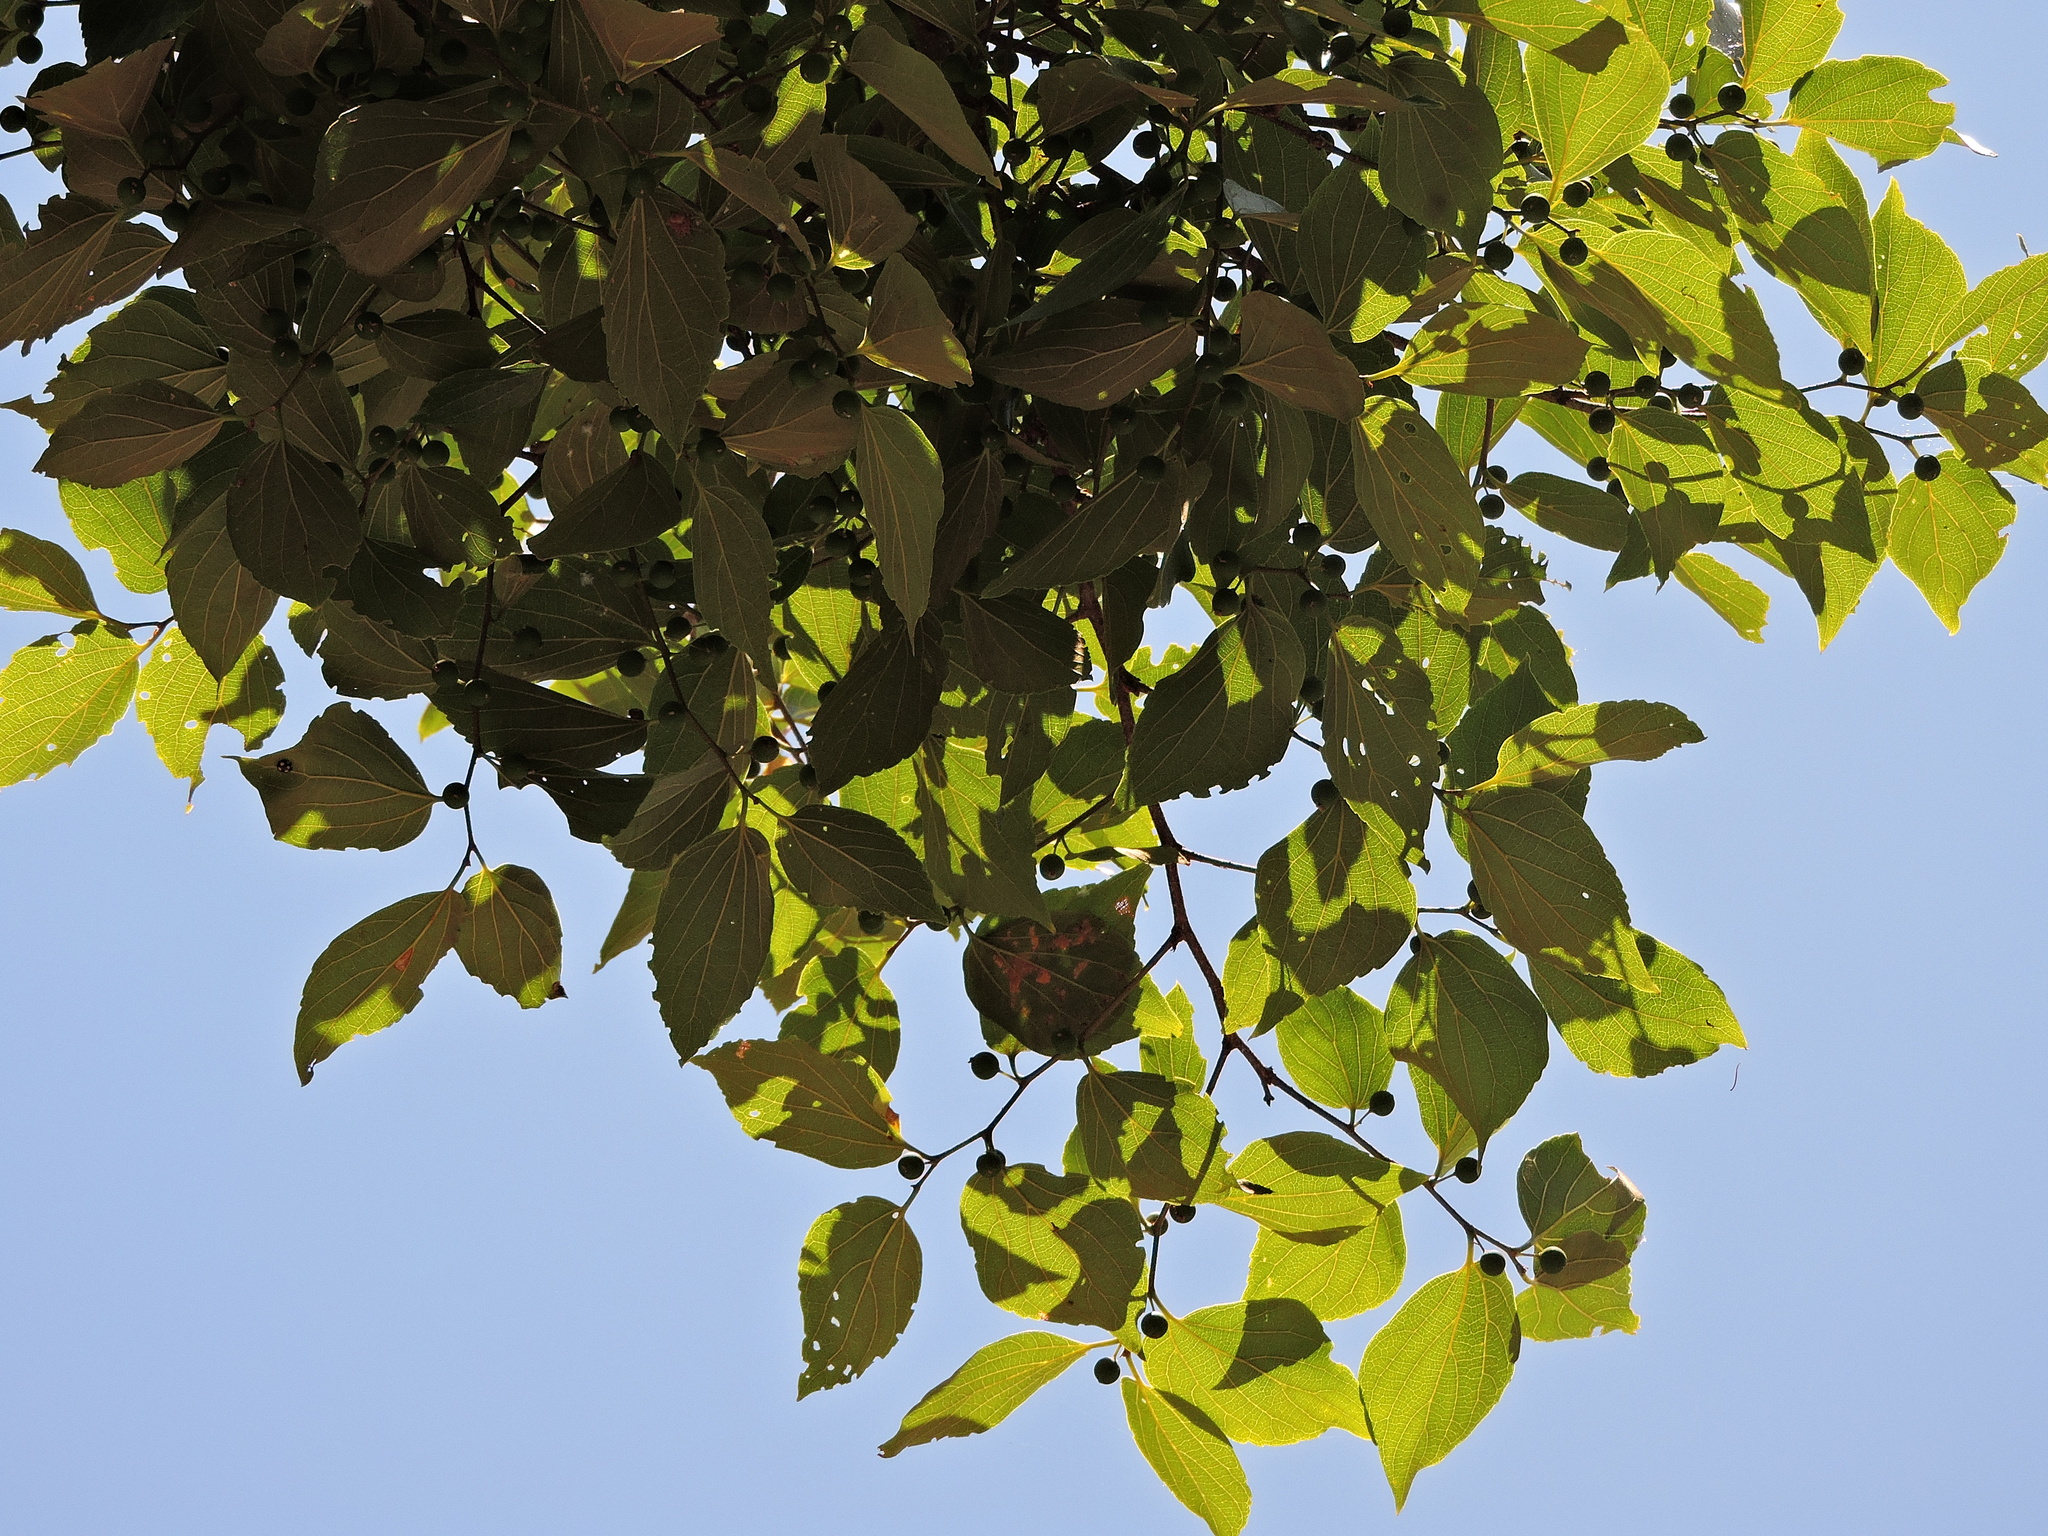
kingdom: Plantae
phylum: Tracheophyta
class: Magnoliopsida
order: Rosales
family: Cannabaceae
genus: Celtis
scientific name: Celtis sinensis
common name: Chinese hackberry
